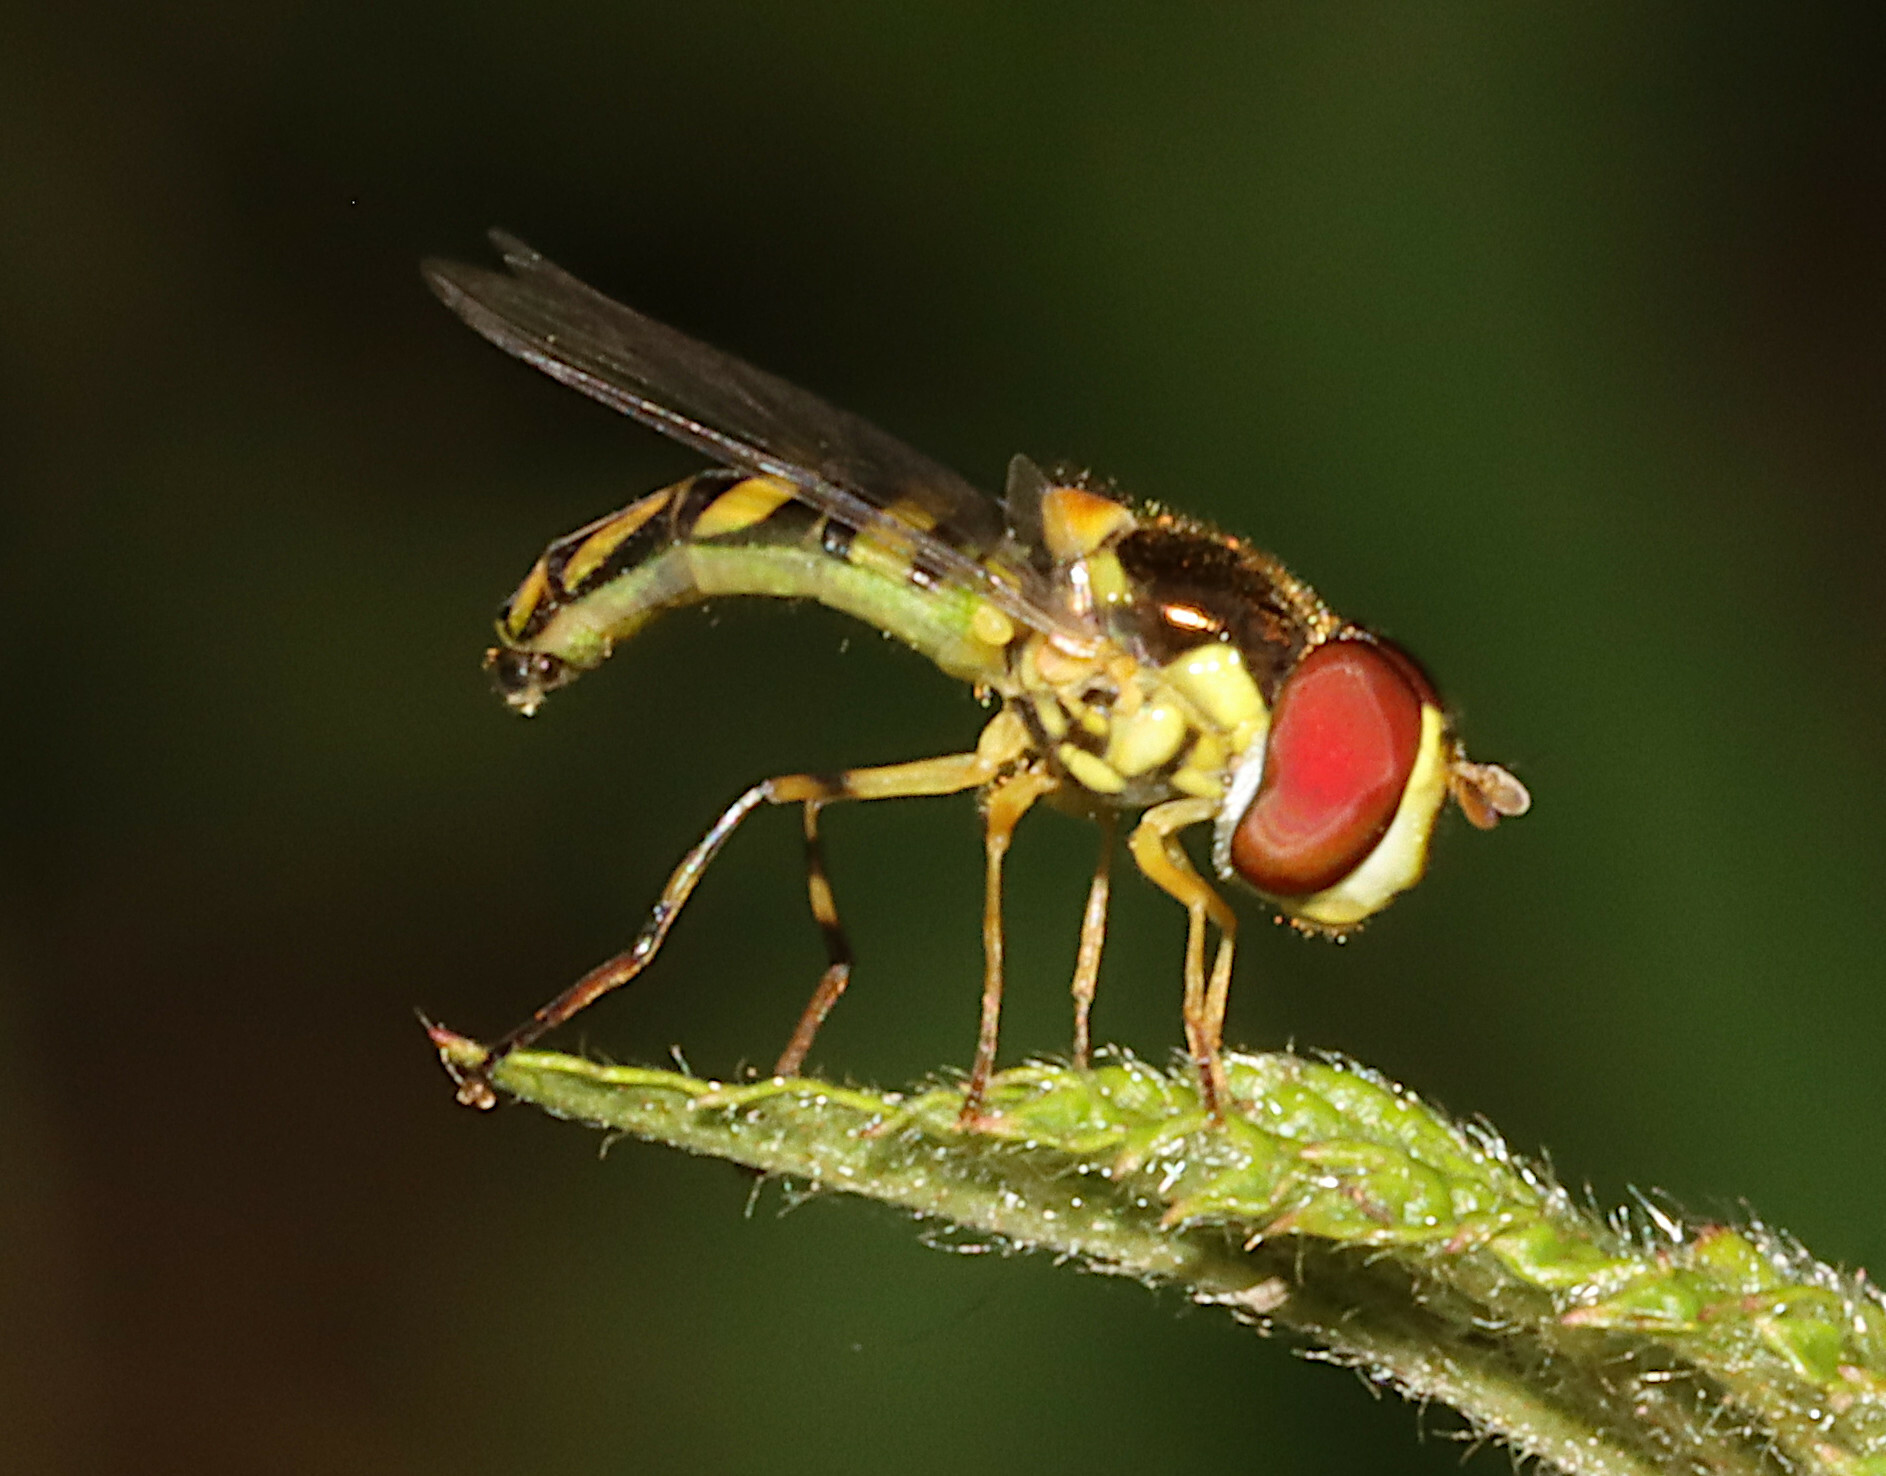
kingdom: Animalia
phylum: Arthropoda
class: Insecta
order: Diptera
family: Syrphidae
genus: Allograpta
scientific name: Allograpta obliqua
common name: Common oblique syrphid
